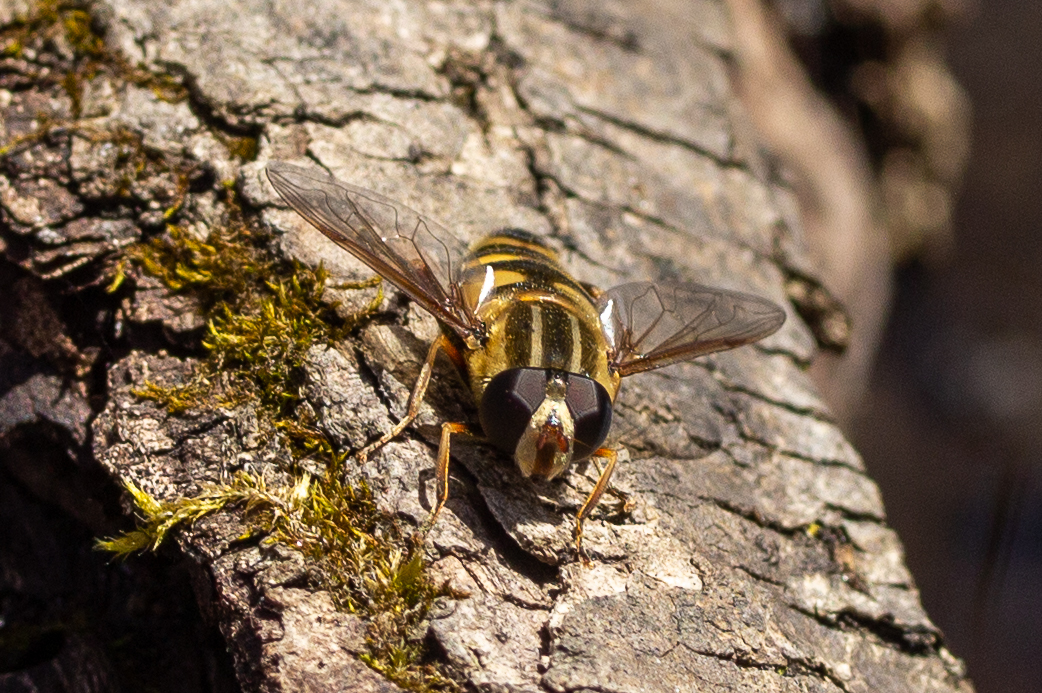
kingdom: Animalia
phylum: Arthropoda
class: Insecta
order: Diptera
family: Syrphidae
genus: Helophilus
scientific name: Helophilus fasciatus
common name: Narrow-headed marsh fly
